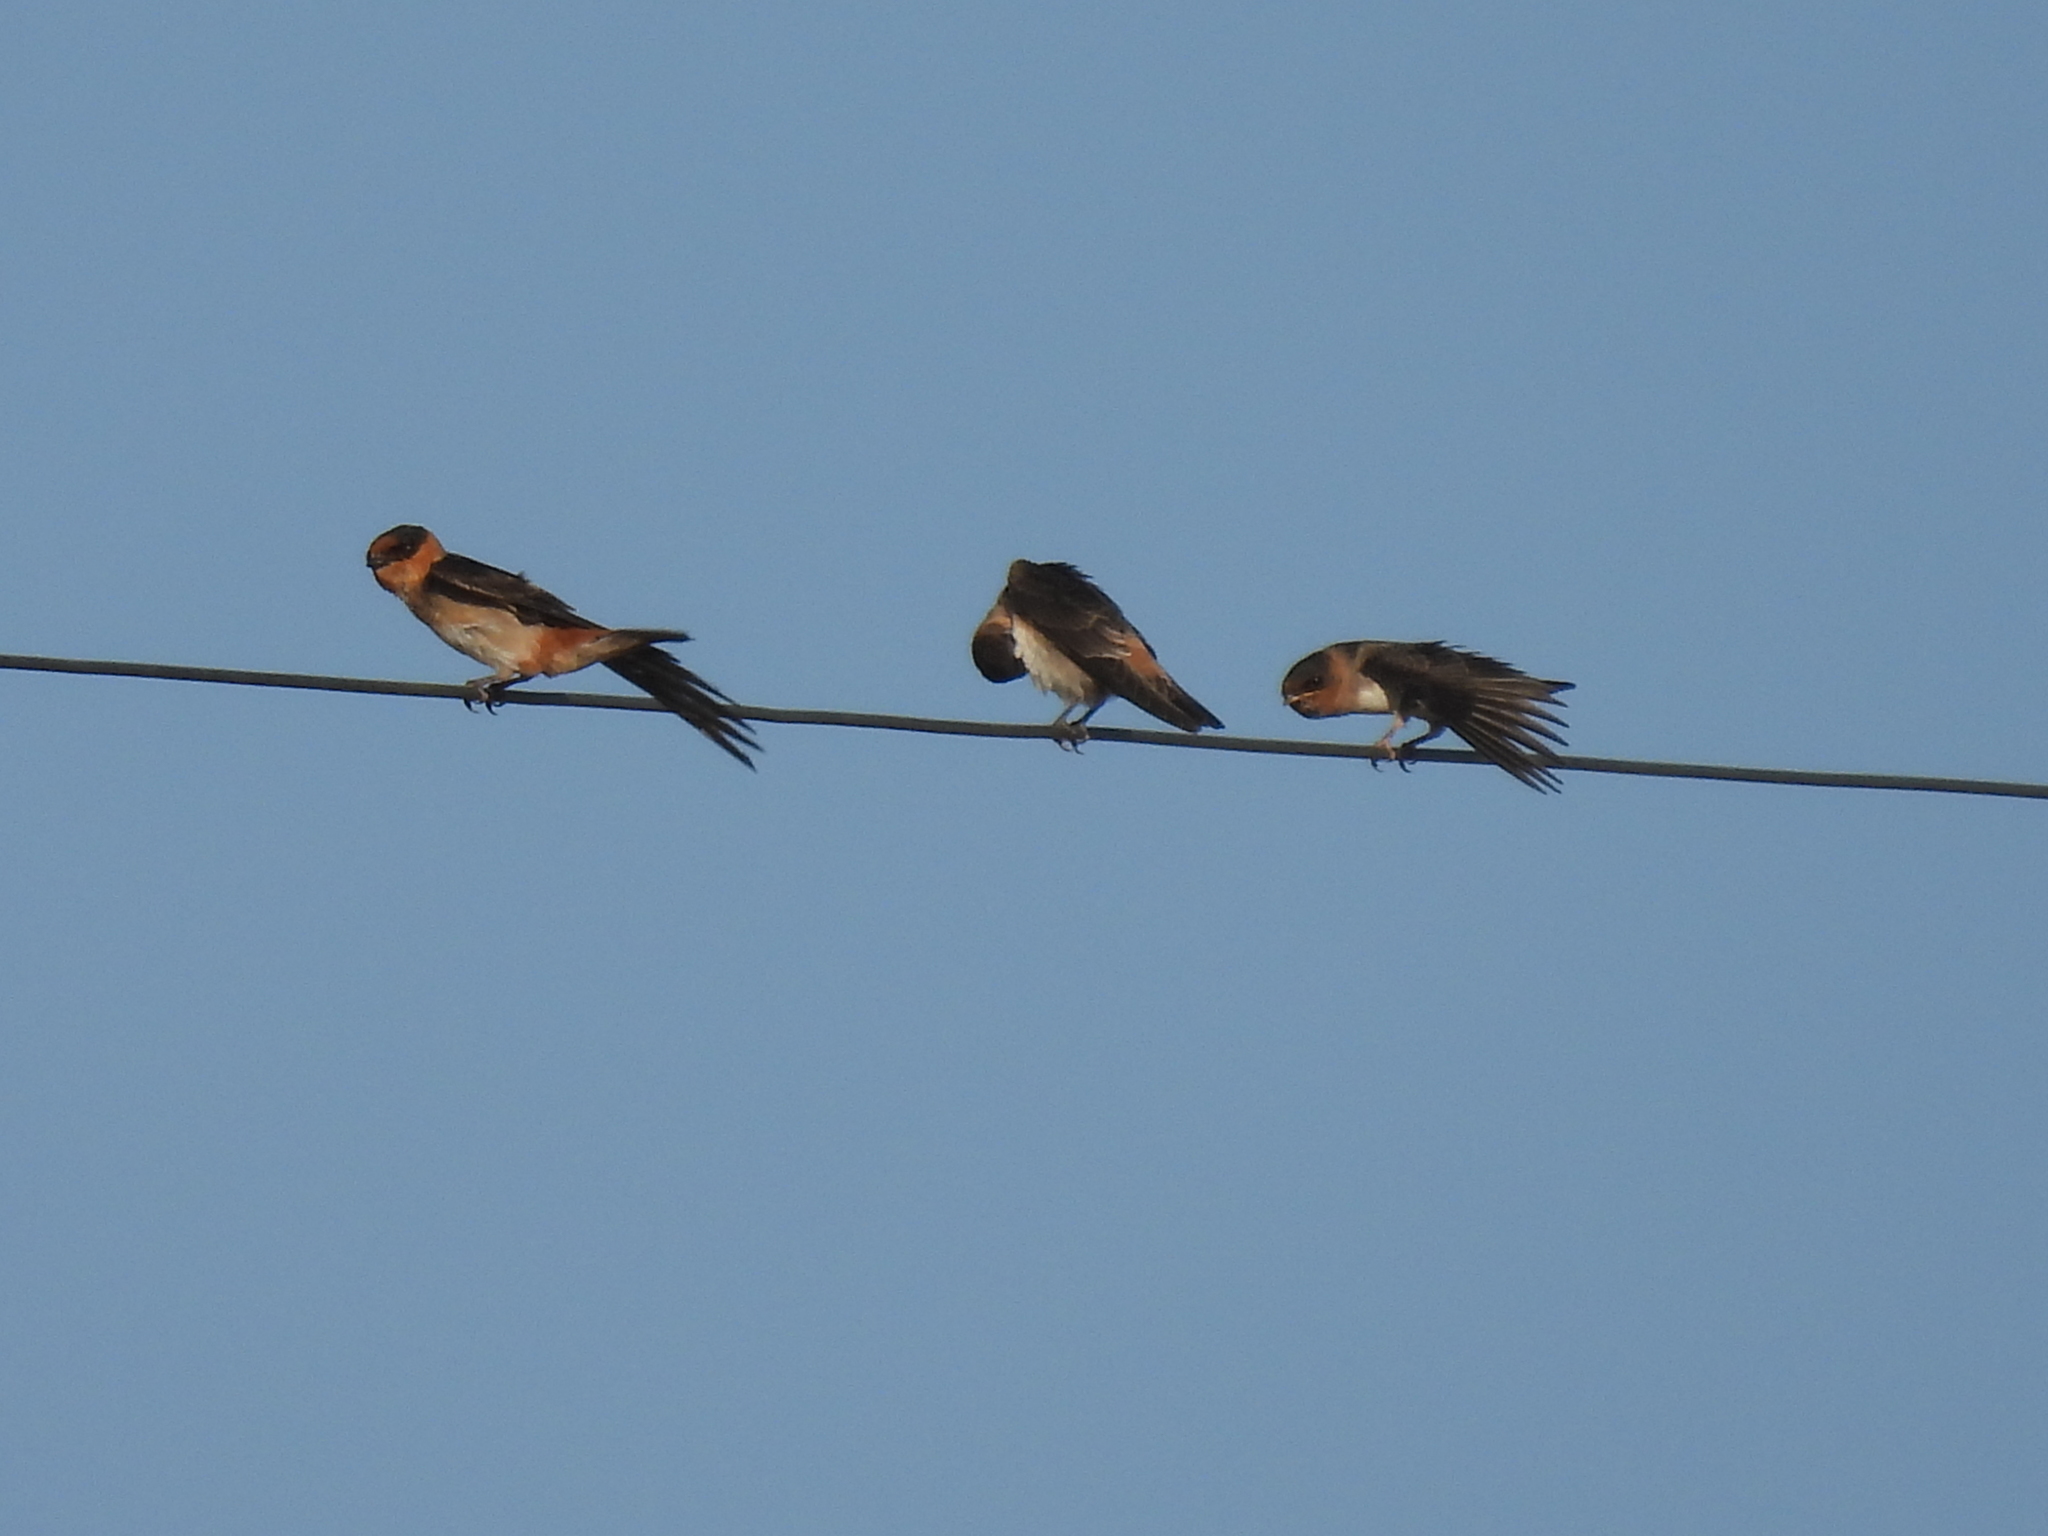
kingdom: Animalia
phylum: Chordata
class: Aves
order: Passeriformes
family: Hirundinidae
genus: Petrochelidon
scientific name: Petrochelidon fulva
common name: Cave swallow
